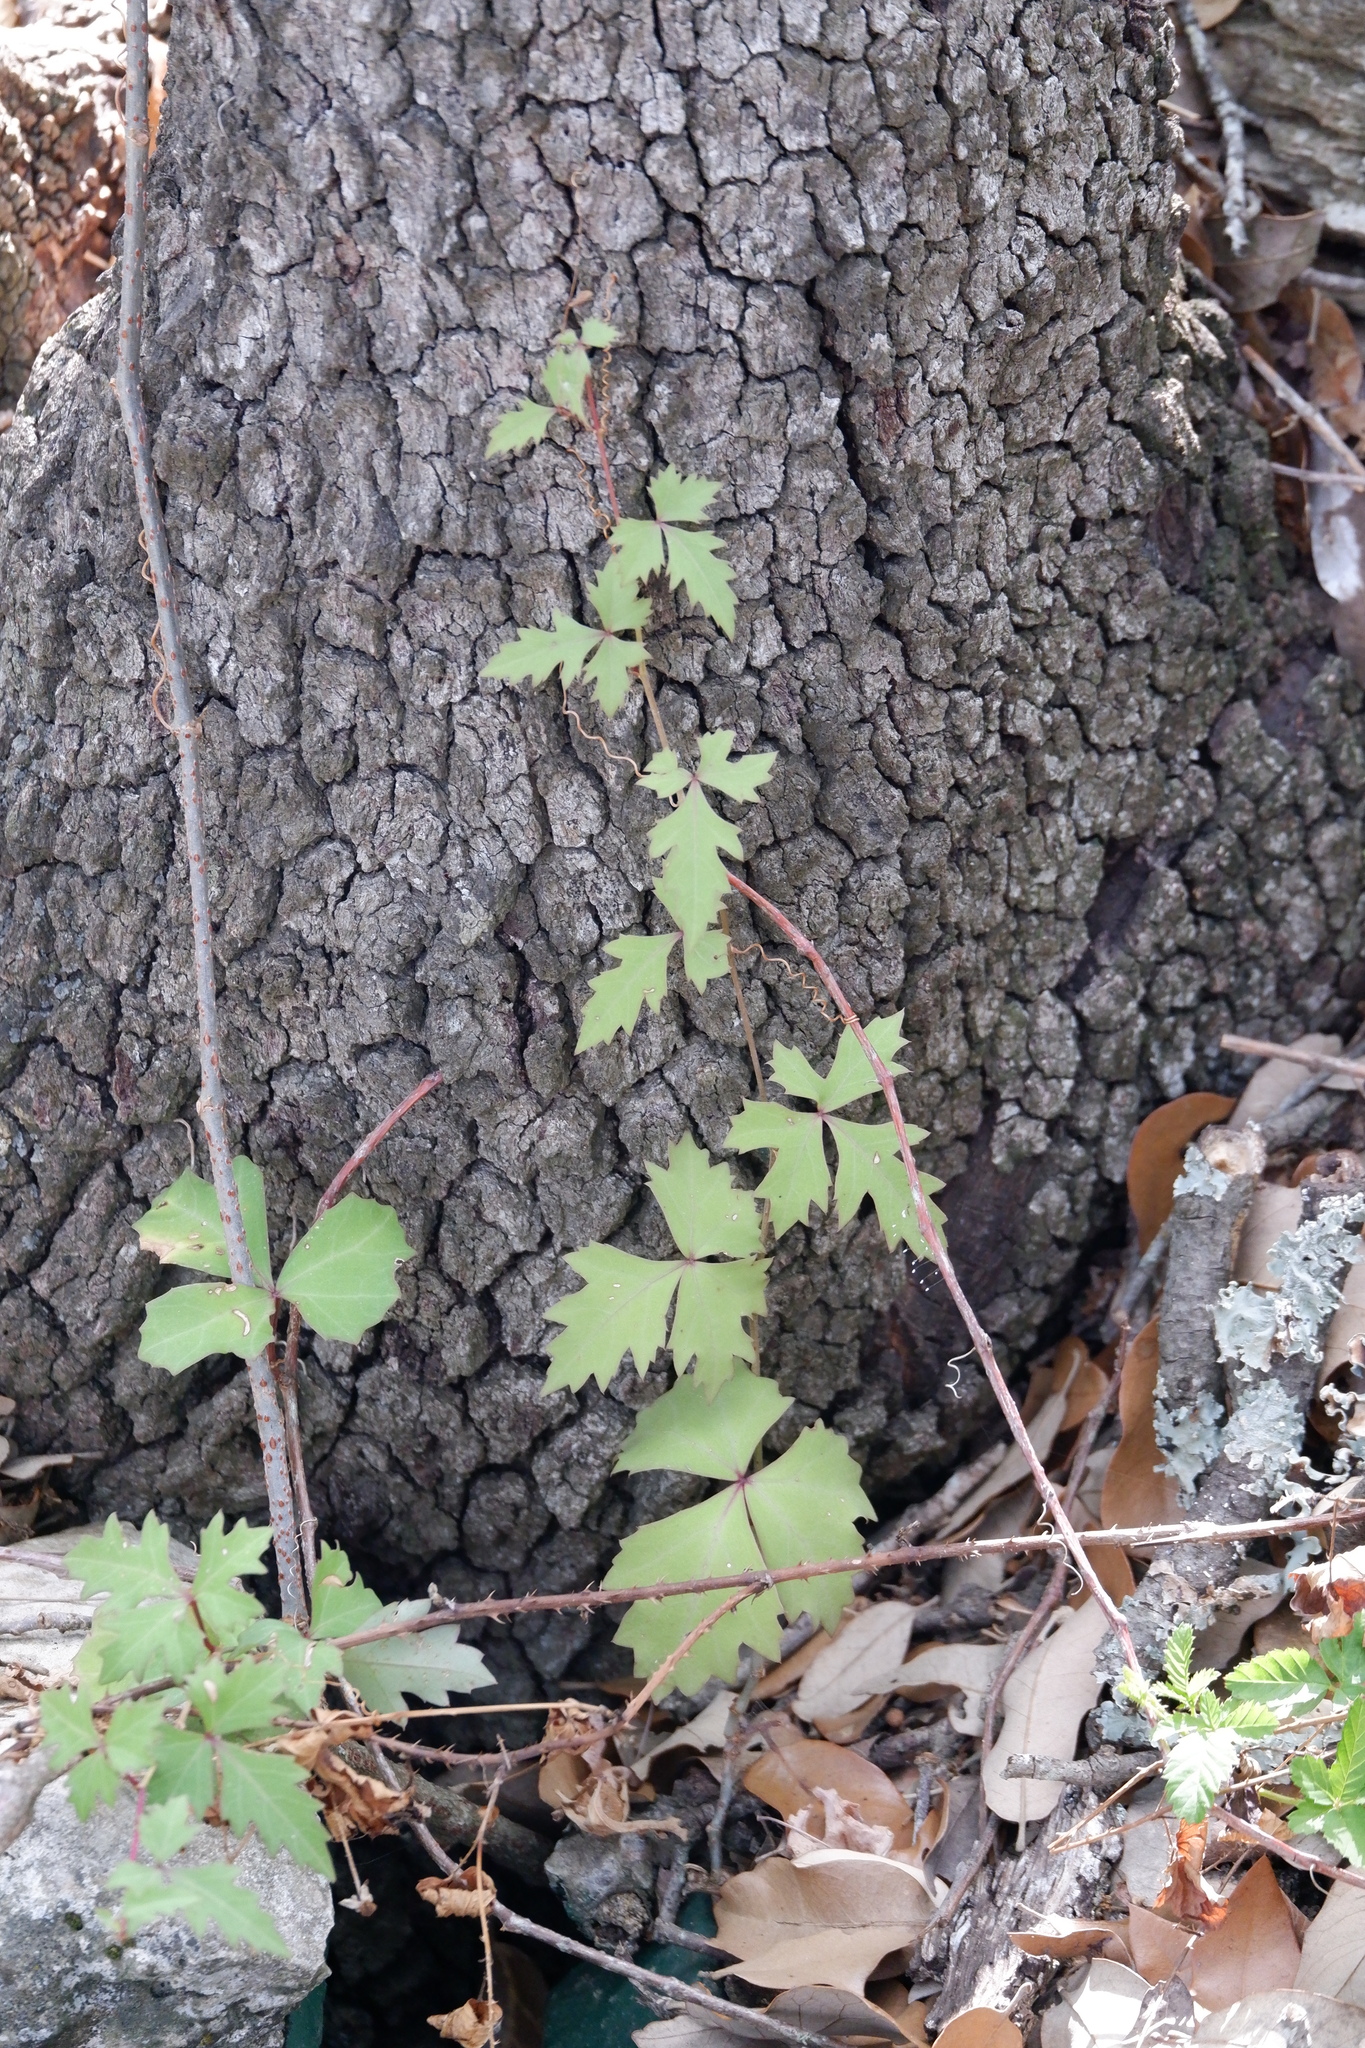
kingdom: Plantae
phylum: Tracheophyta
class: Magnoliopsida
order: Vitales
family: Vitaceae
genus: Cissus
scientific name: Cissus trifoliata
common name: Vine-sorrel
